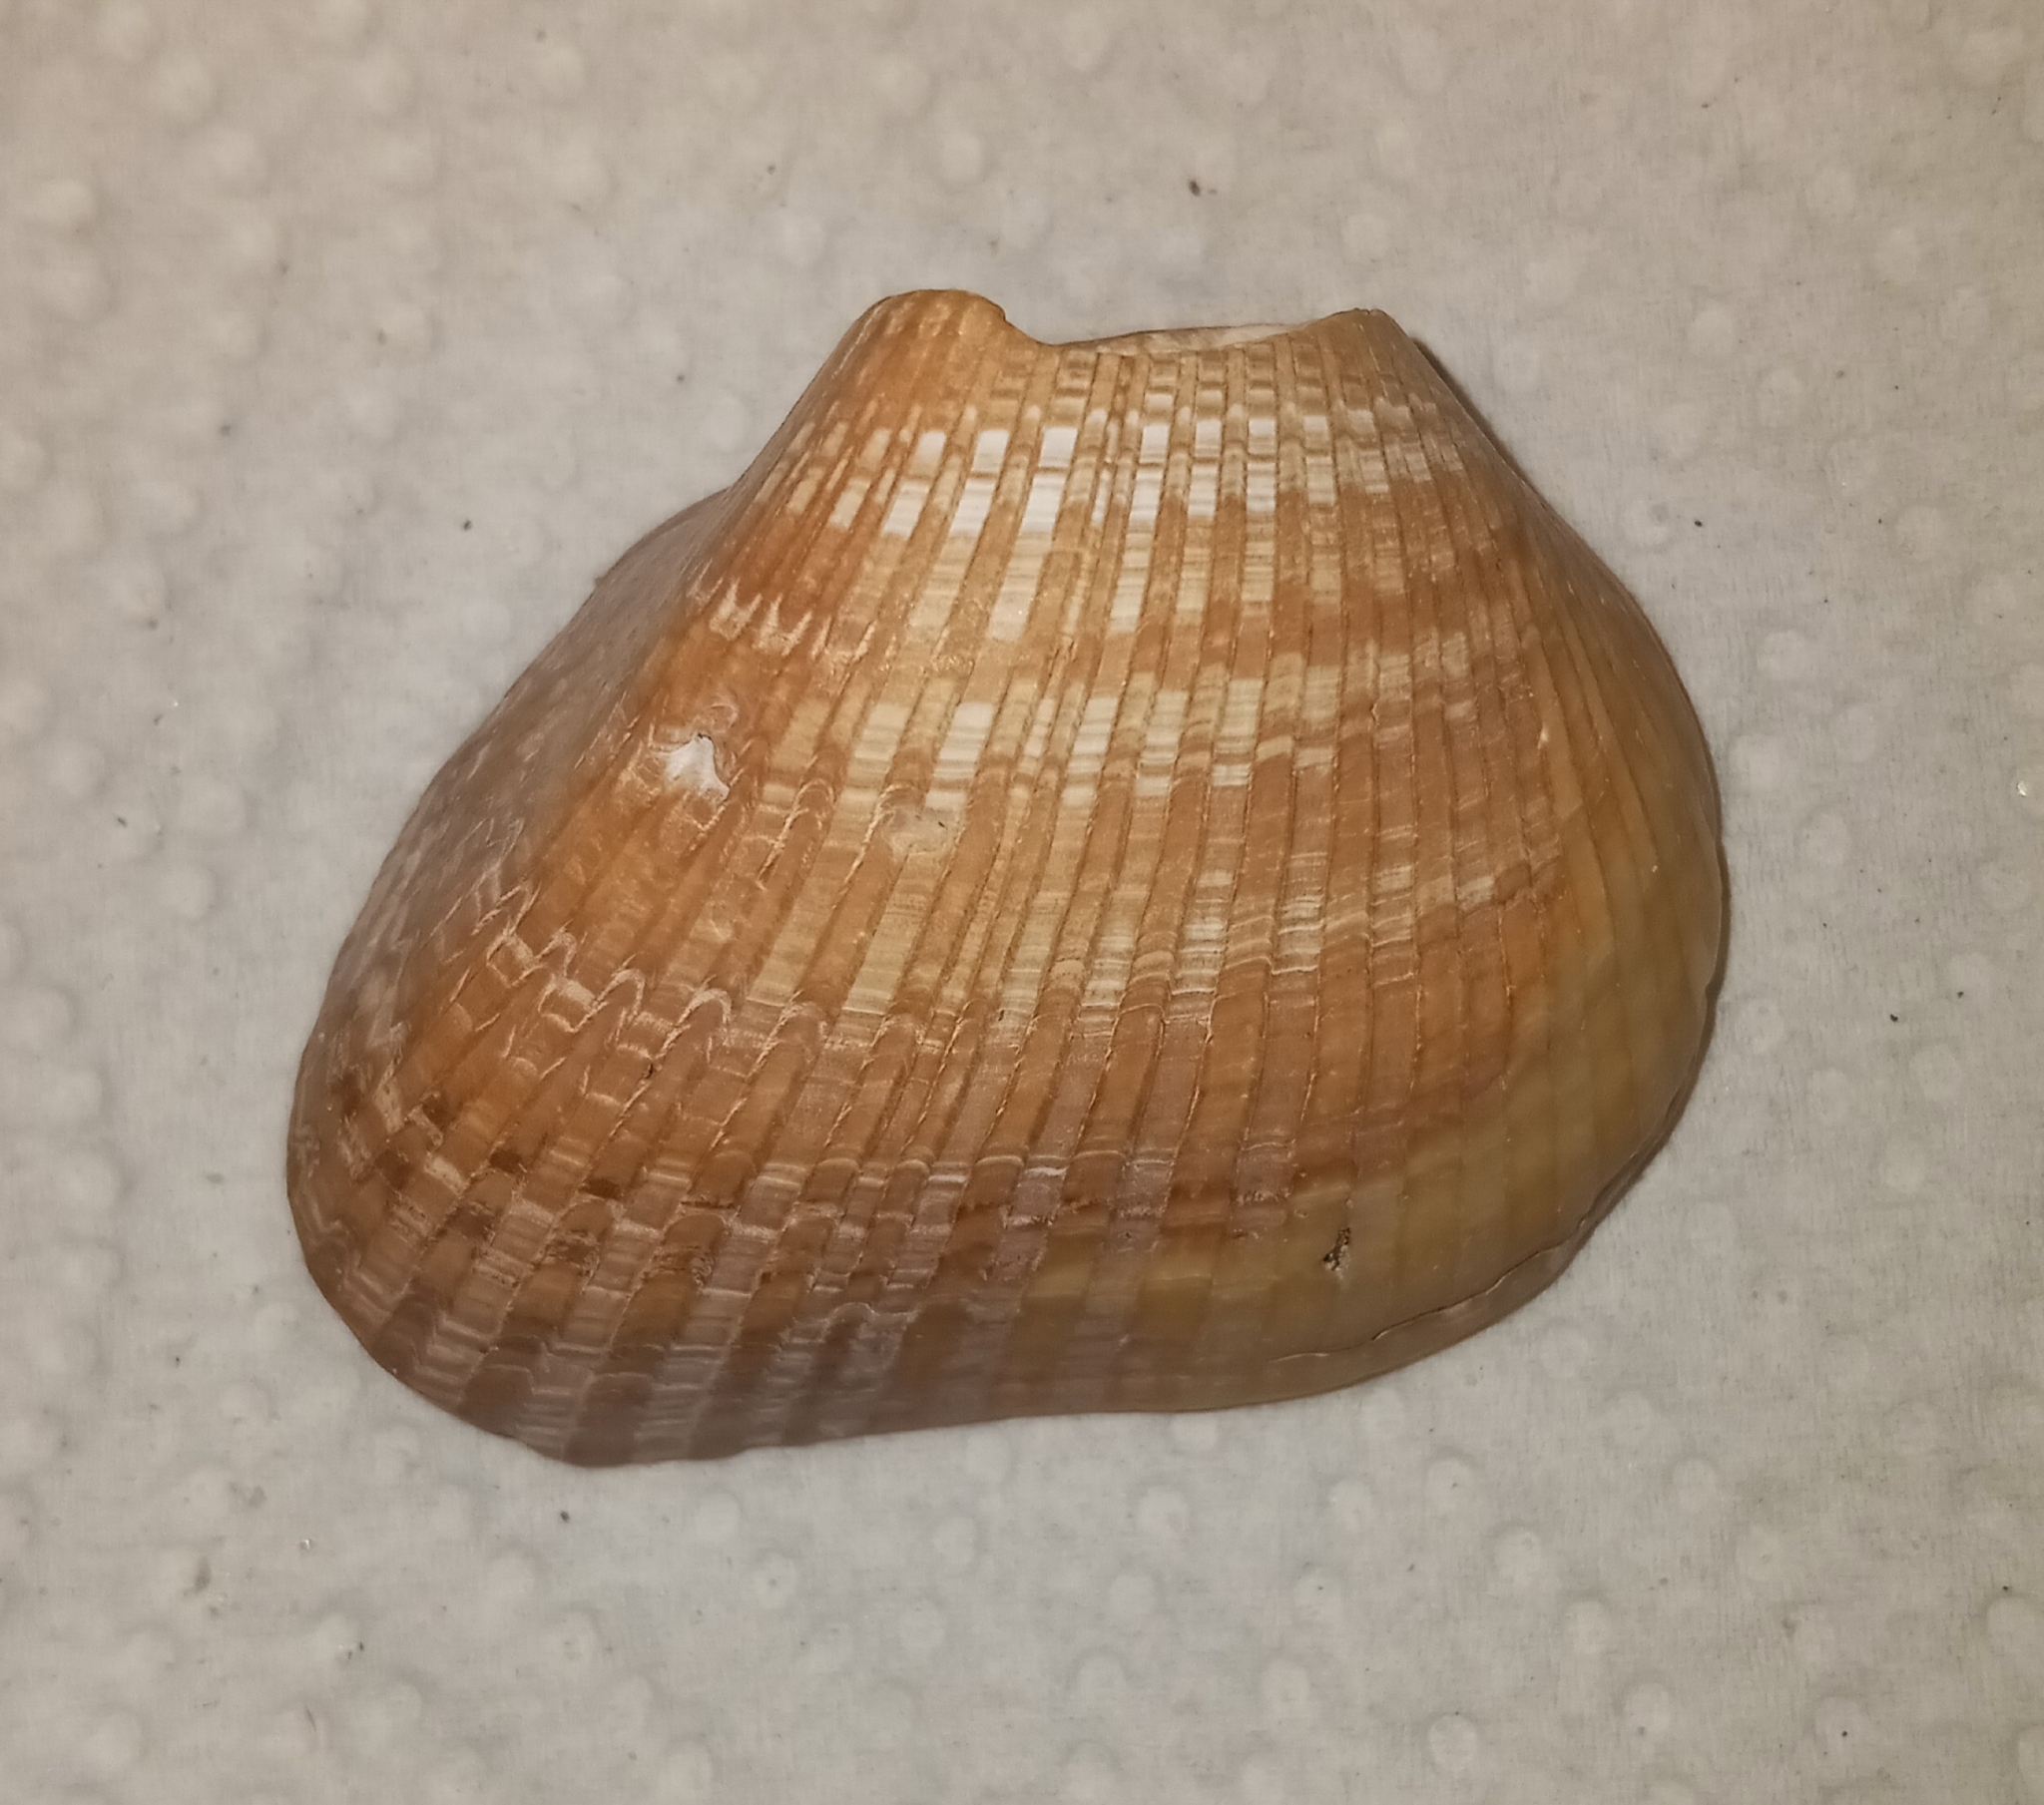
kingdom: Animalia
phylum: Mollusca
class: Bivalvia
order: Arcida
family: Noetiidae
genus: Noetia
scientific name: Noetia ponderosa
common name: Ponderous ark
